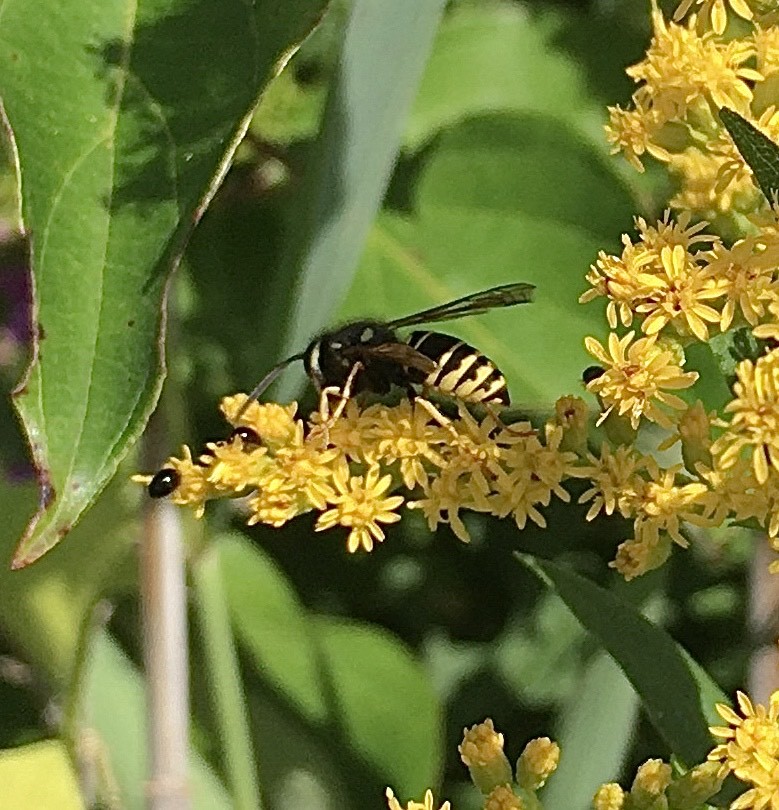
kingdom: Animalia
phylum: Arthropoda
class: Insecta
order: Hymenoptera
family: Vespidae
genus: Vespula
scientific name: Vespula vidua
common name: Widow yellowjacket
